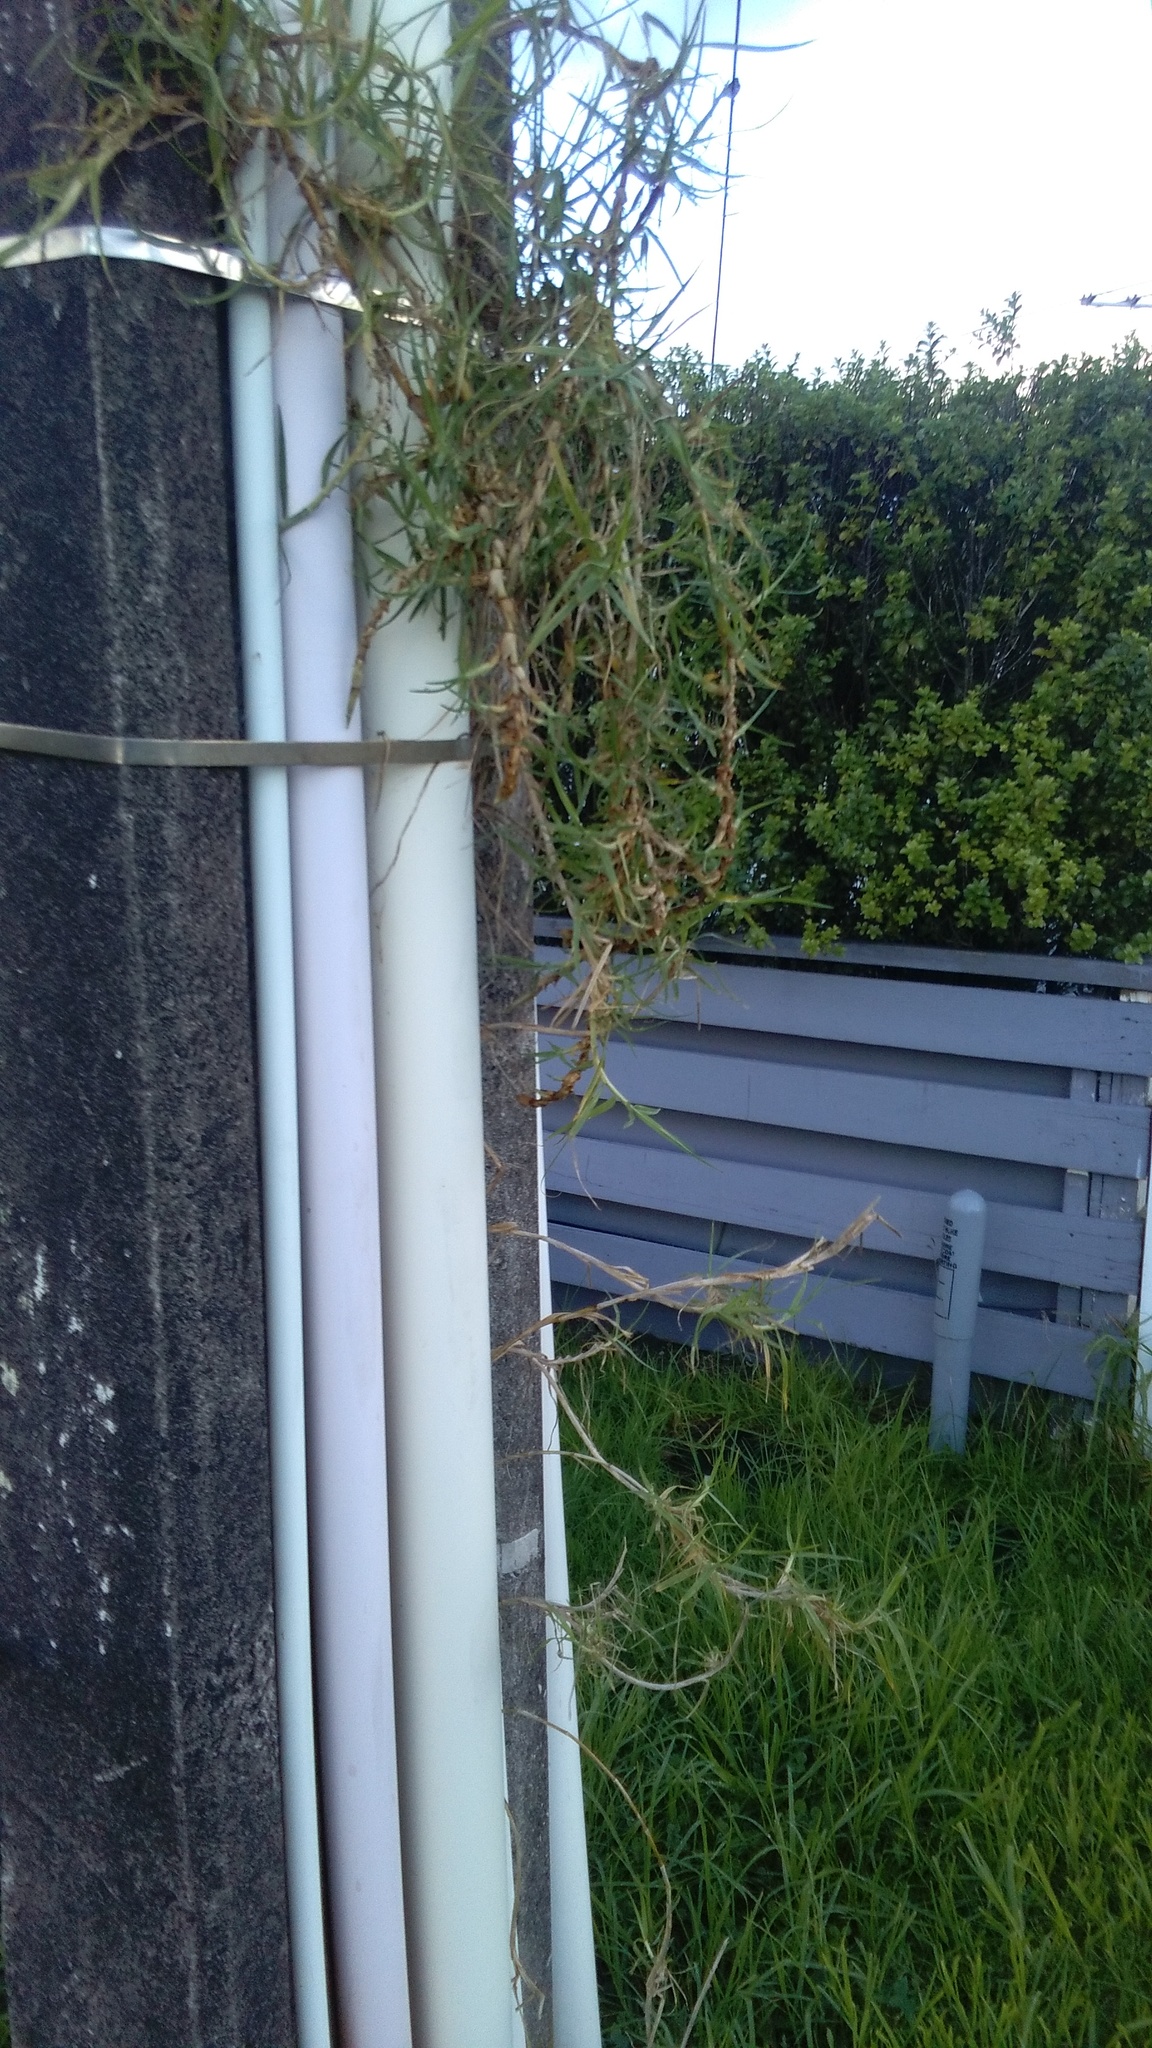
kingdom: Plantae
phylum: Tracheophyta
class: Liliopsida
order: Poales
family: Poaceae
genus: Cenchrus
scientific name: Cenchrus clandestinus
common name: Kikuyugrass
